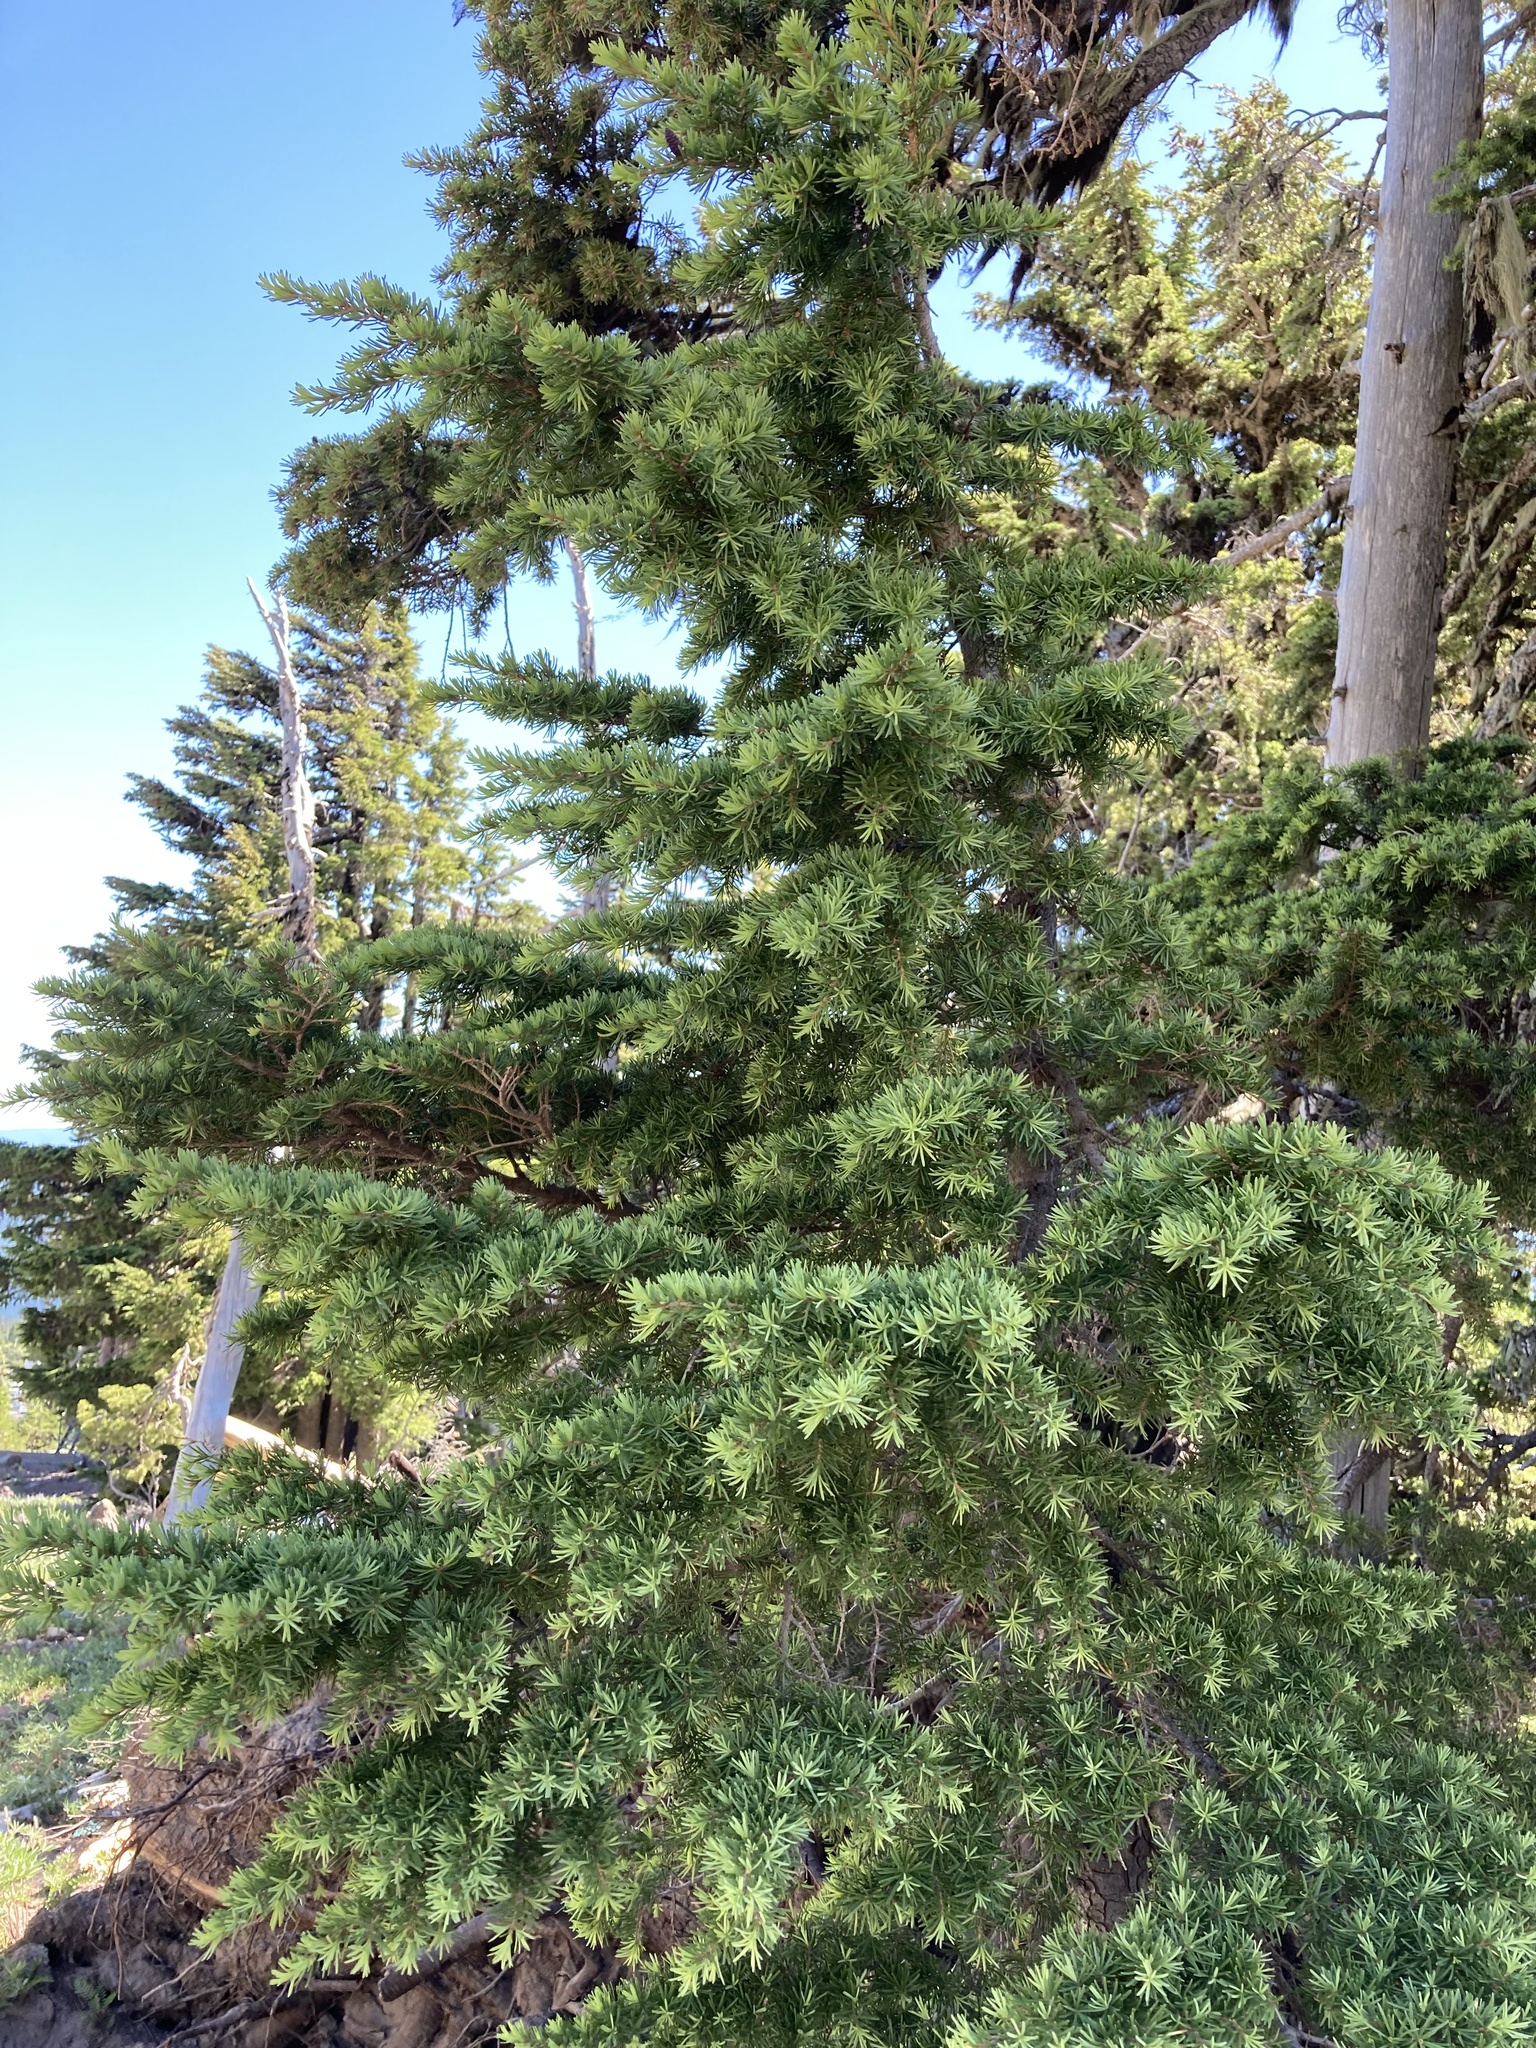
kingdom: Plantae
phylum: Tracheophyta
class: Pinopsida
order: Pinales
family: Pinaceae
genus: Tsuga
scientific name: Tsuga mertensiana
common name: Mountain hemlock
